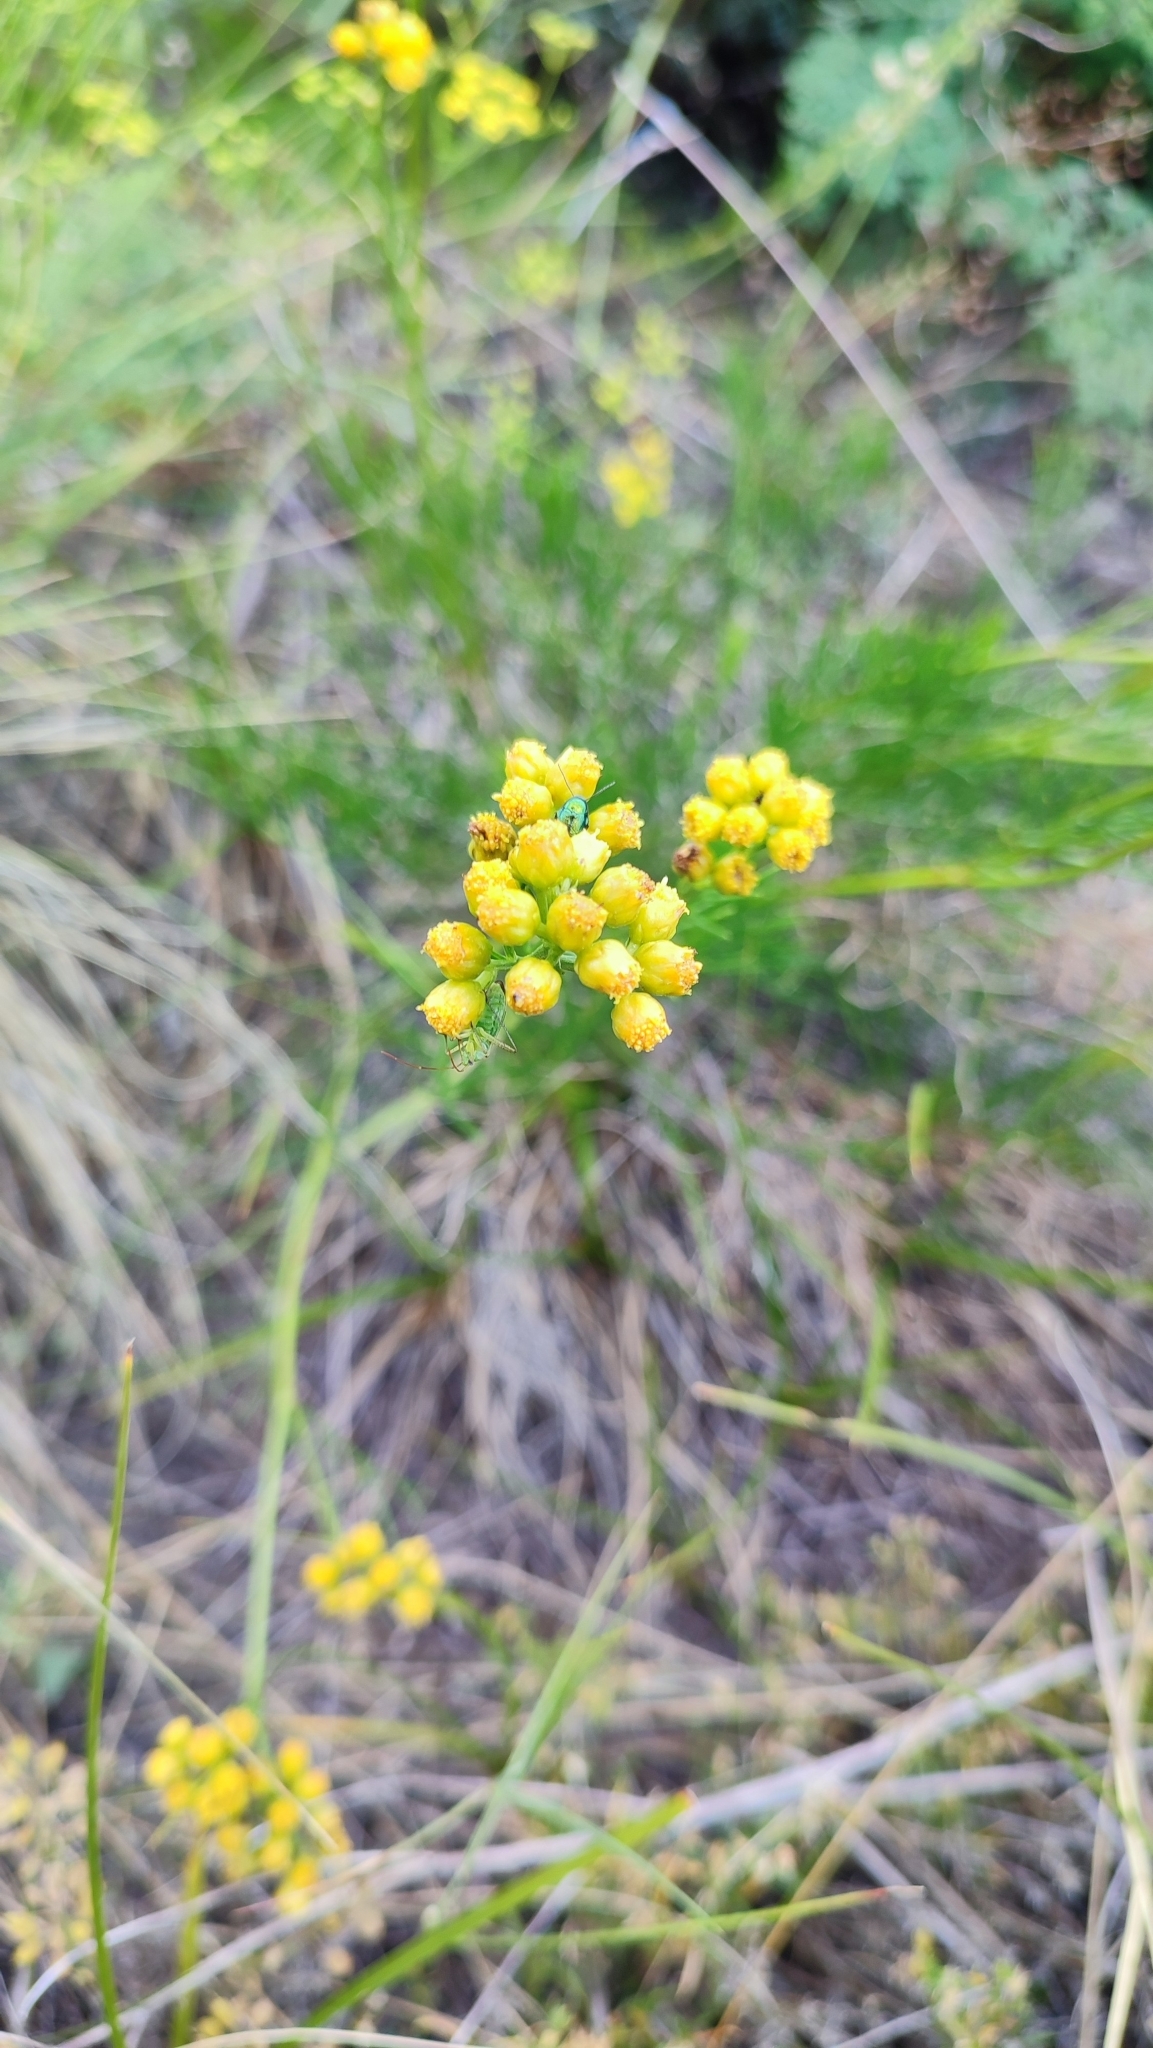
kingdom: Plantae
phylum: Tracheophyta
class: Magnoliopsida
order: Asterales
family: Asteraceae
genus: Filifolium
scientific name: Filifolium sibiricum
